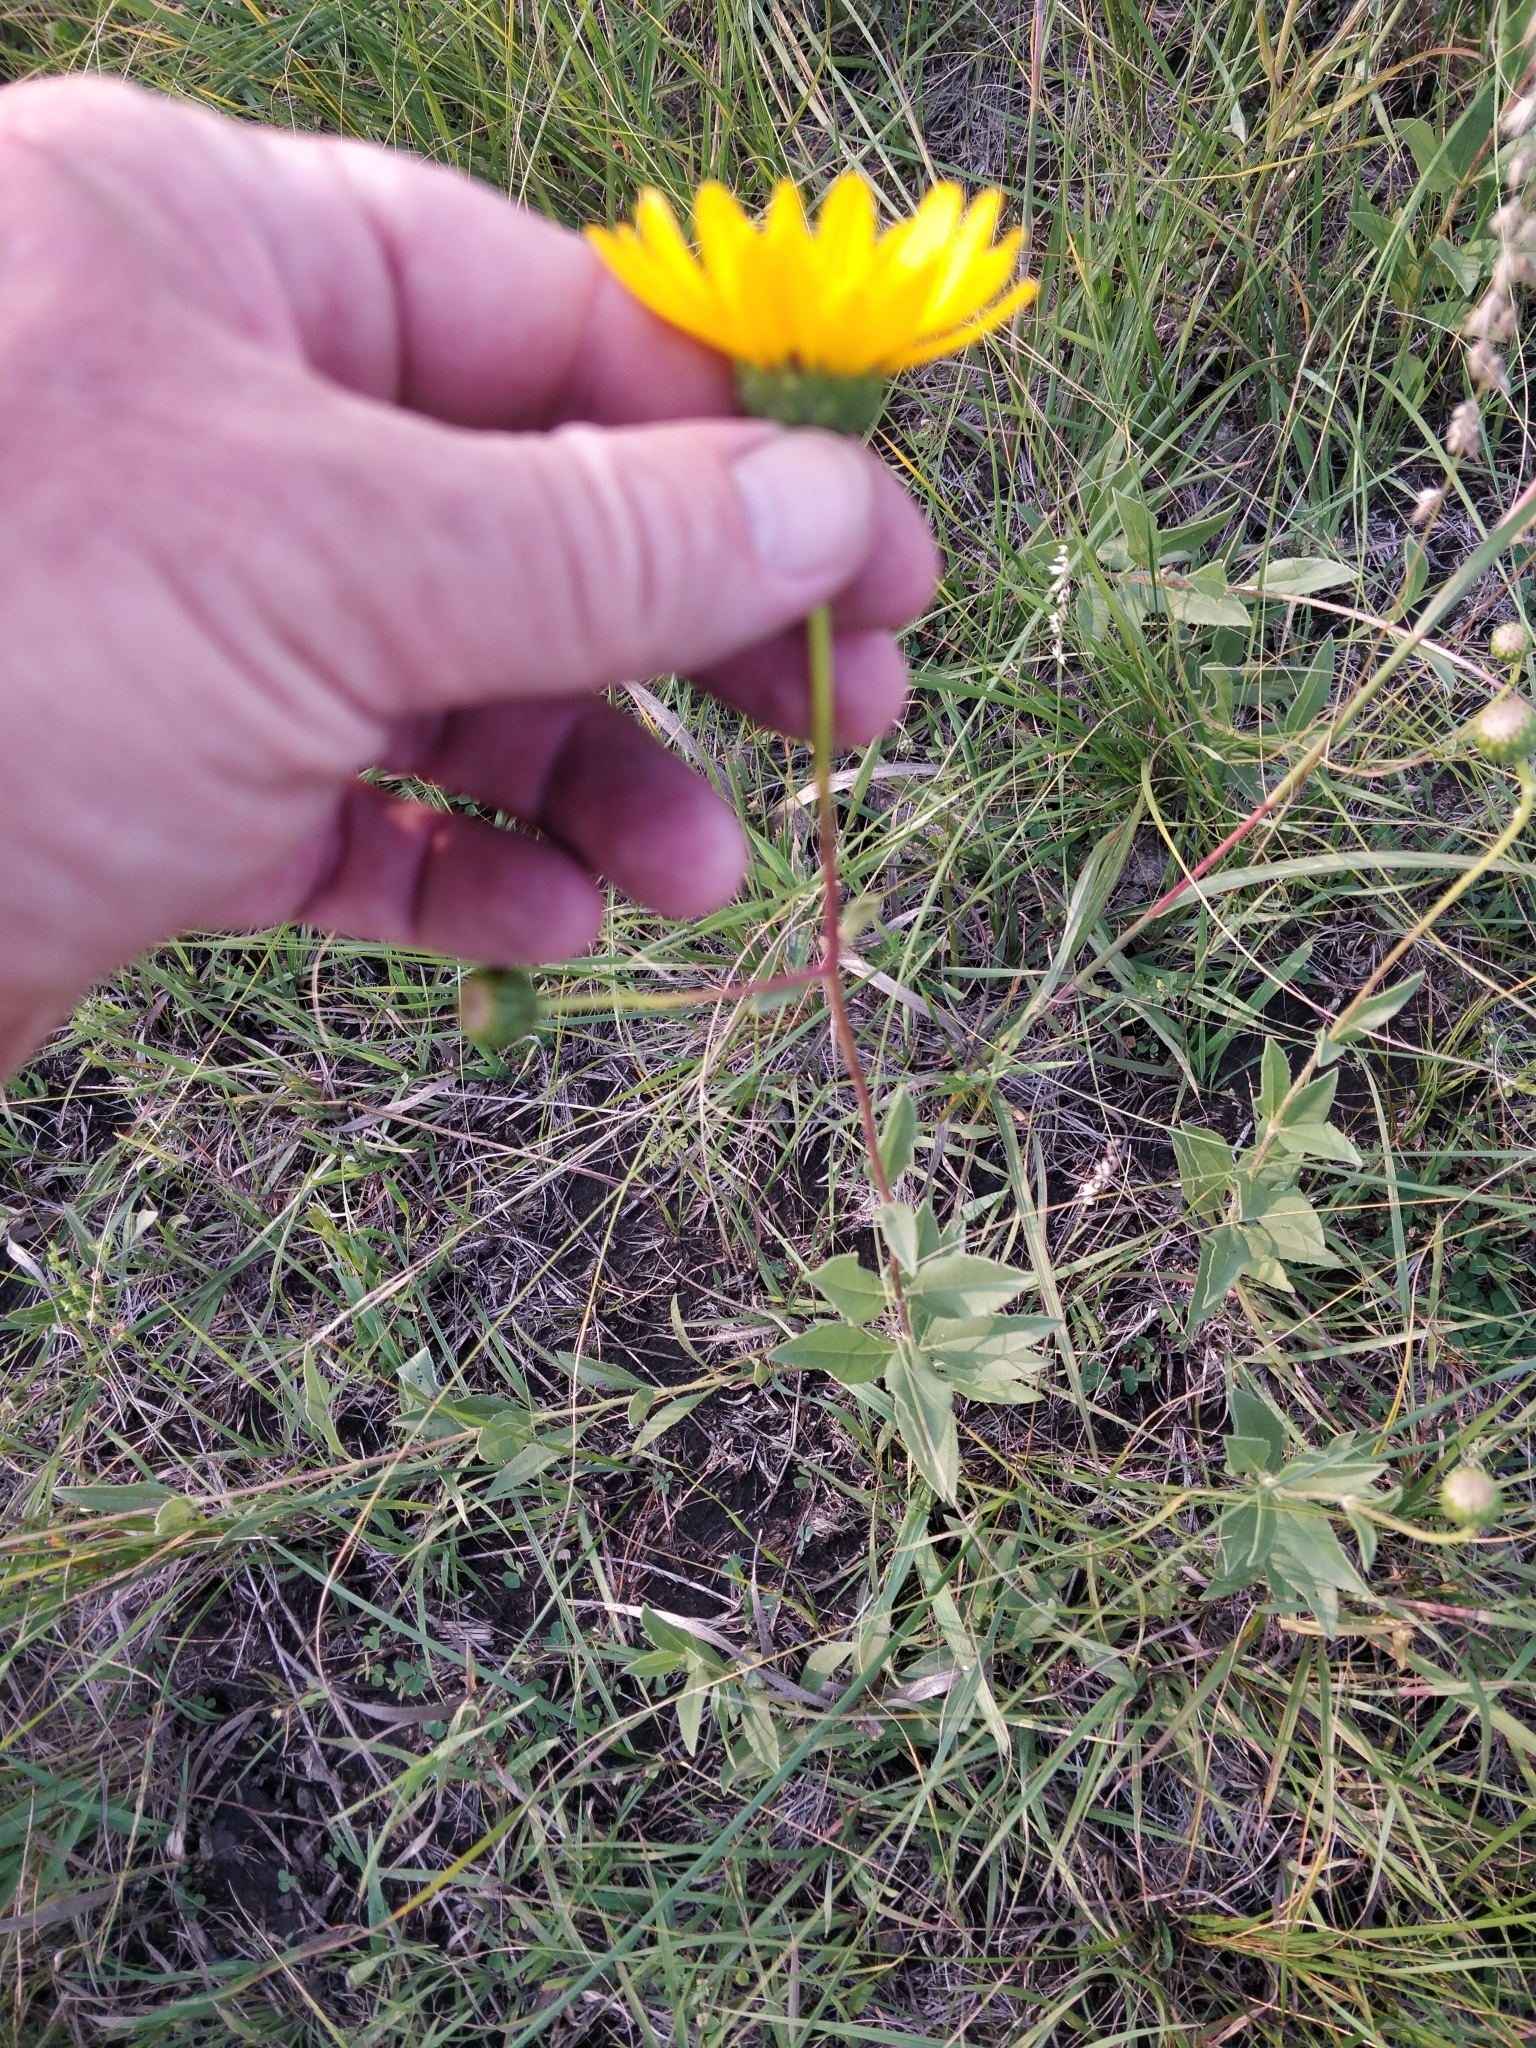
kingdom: Plantae
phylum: Tracheophyta
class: Magnoliopsida
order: Asterales
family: Asteraceae
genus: Helianthus
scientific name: Helianthus pauciflorus
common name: Stiff sunflower
